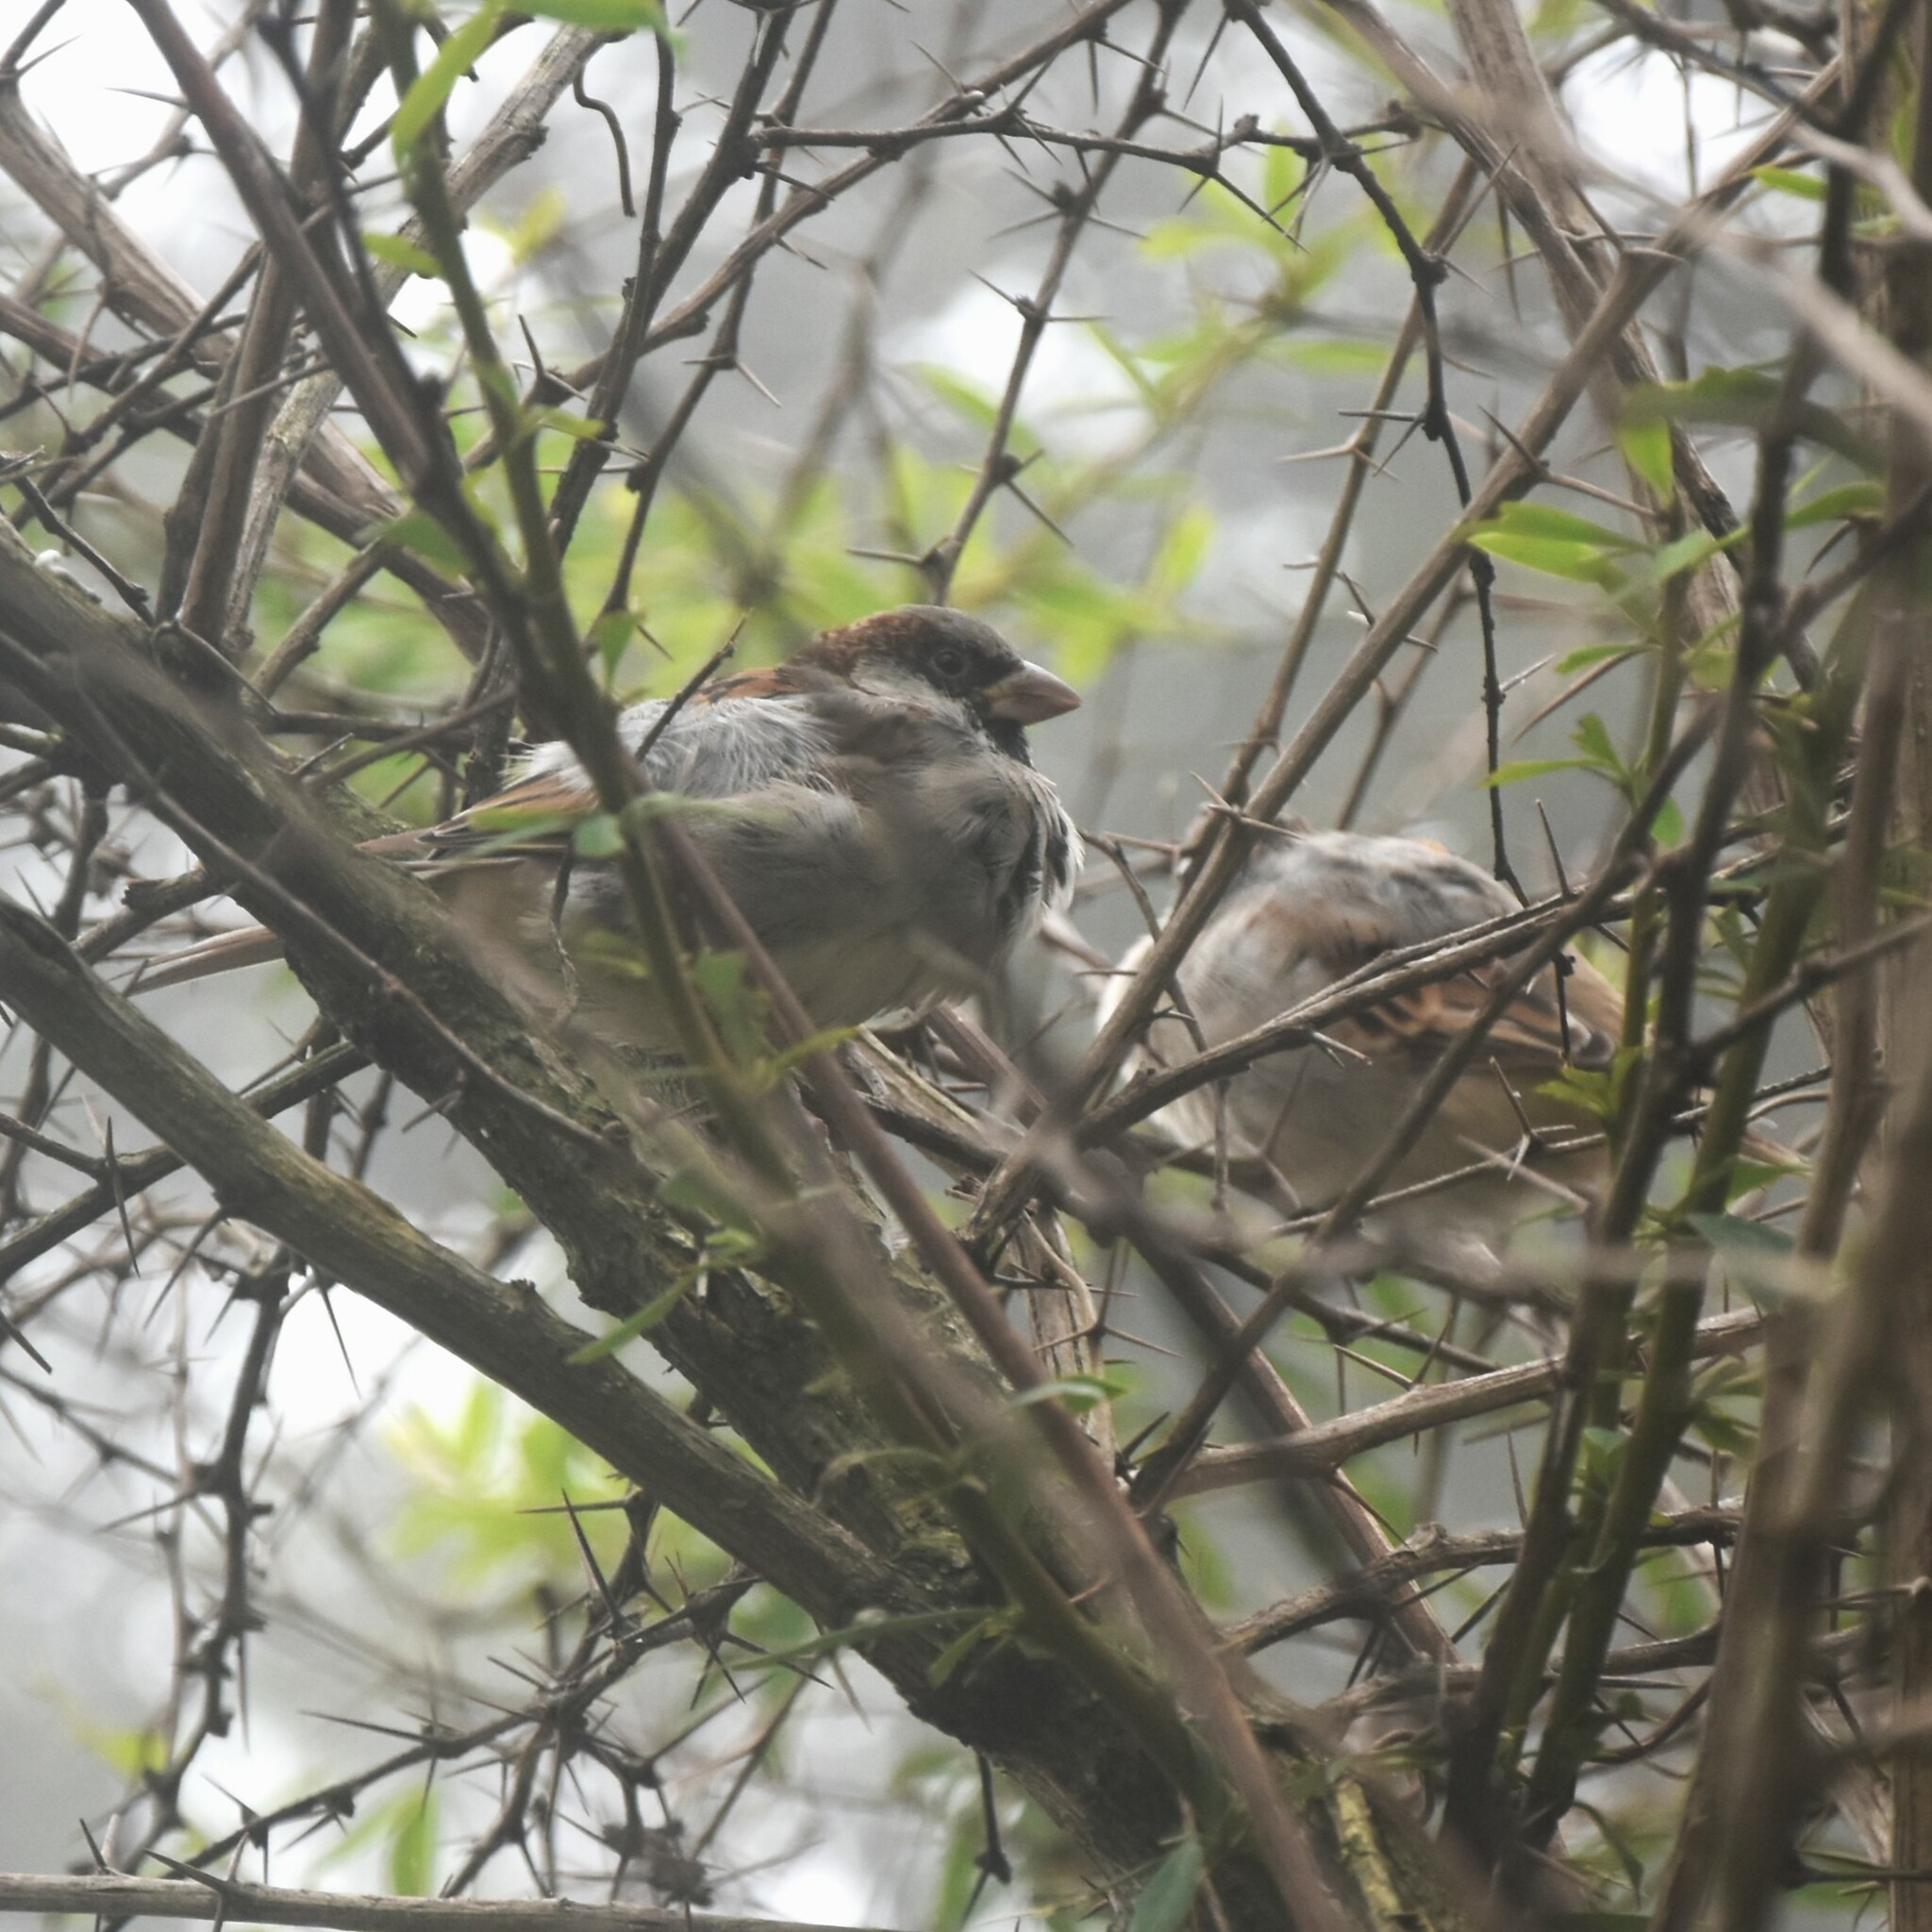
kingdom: Animalia
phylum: Chordata
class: Aves
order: Passeriformes
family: Passeridae
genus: Passer
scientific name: Passer domesticus
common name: House sparrow
